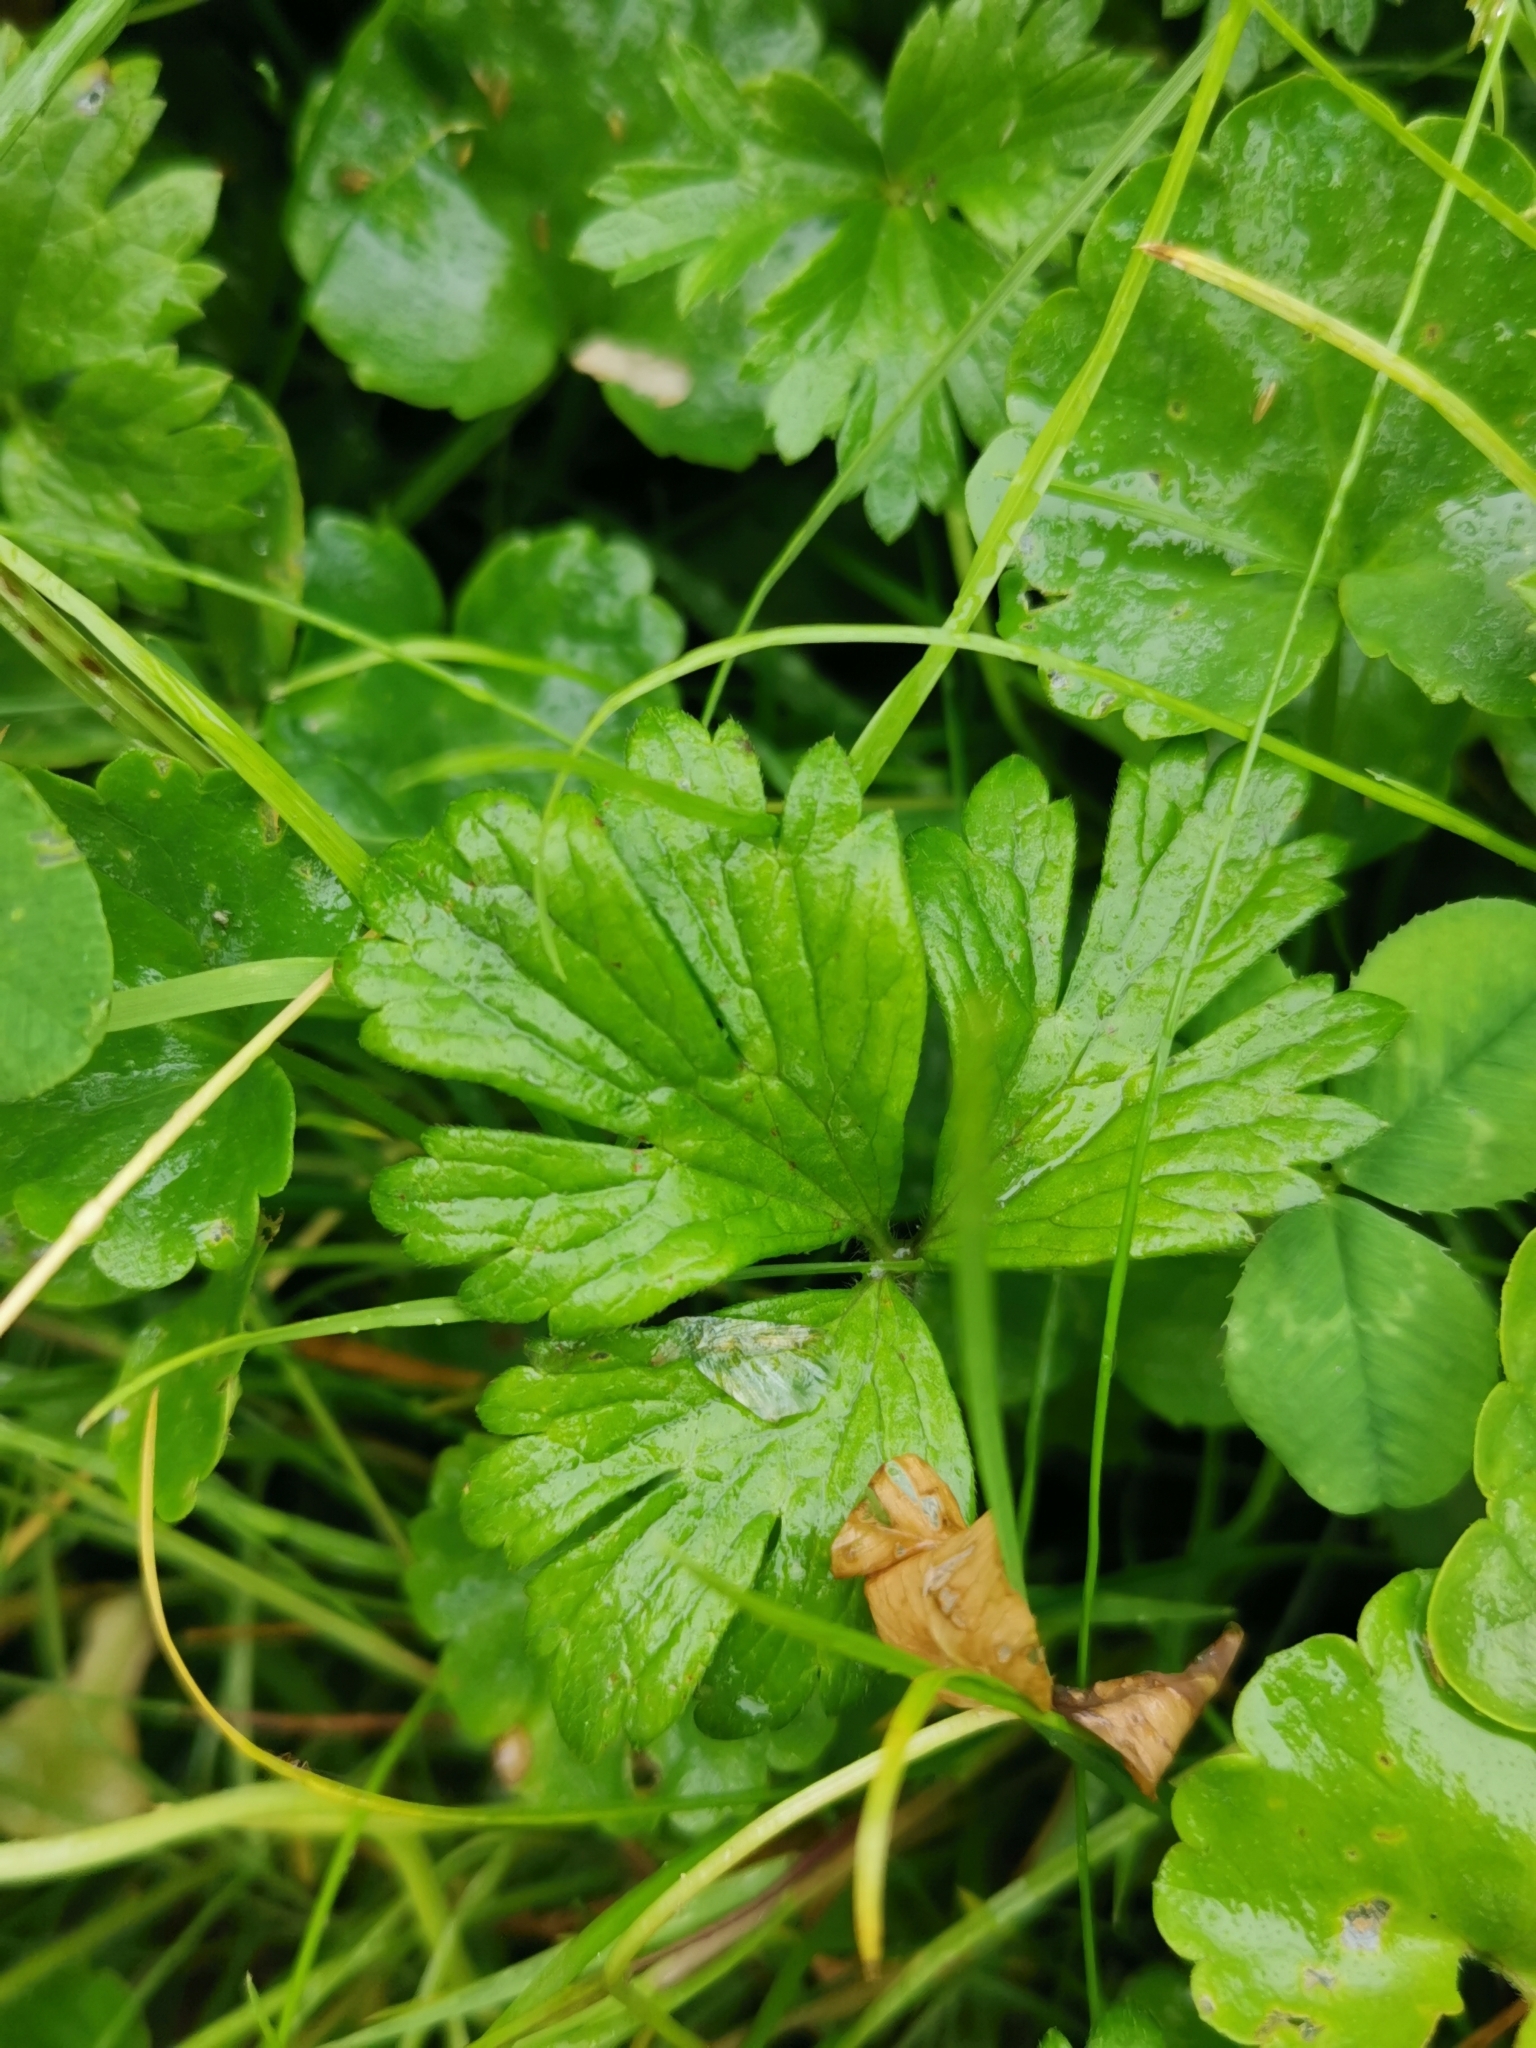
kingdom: Plantae
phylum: Tracheophyta
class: Magnoliopsida
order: Ranunculales
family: Ranunculaceae
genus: Ranunculus
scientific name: Ranunculus repens
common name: Creeping buttercup
